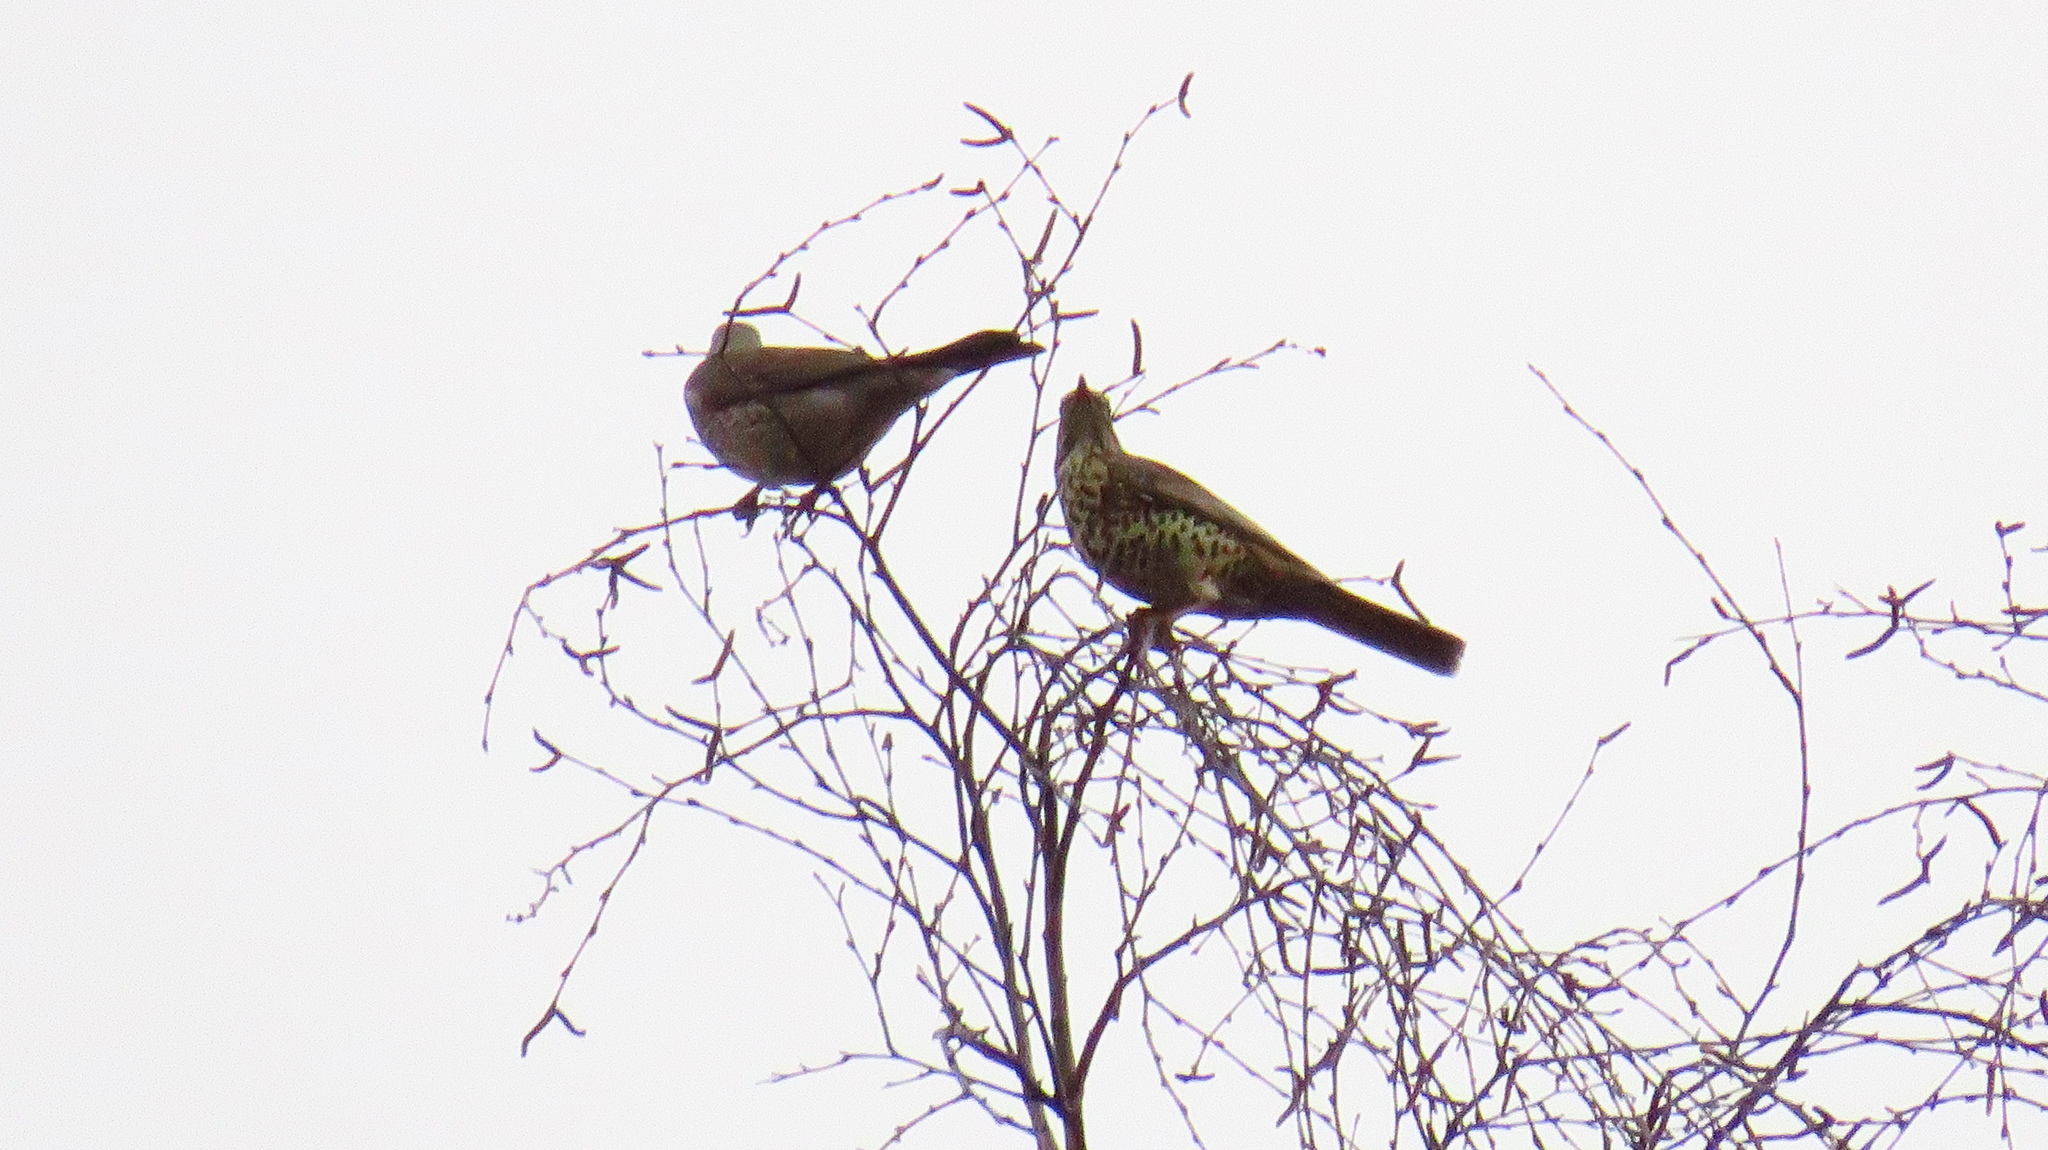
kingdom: Animalia
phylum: Chordata
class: Aves
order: Passeriformes
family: Turdidae
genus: Turdus
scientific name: Turdus viscivorus
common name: Mistle thrush
